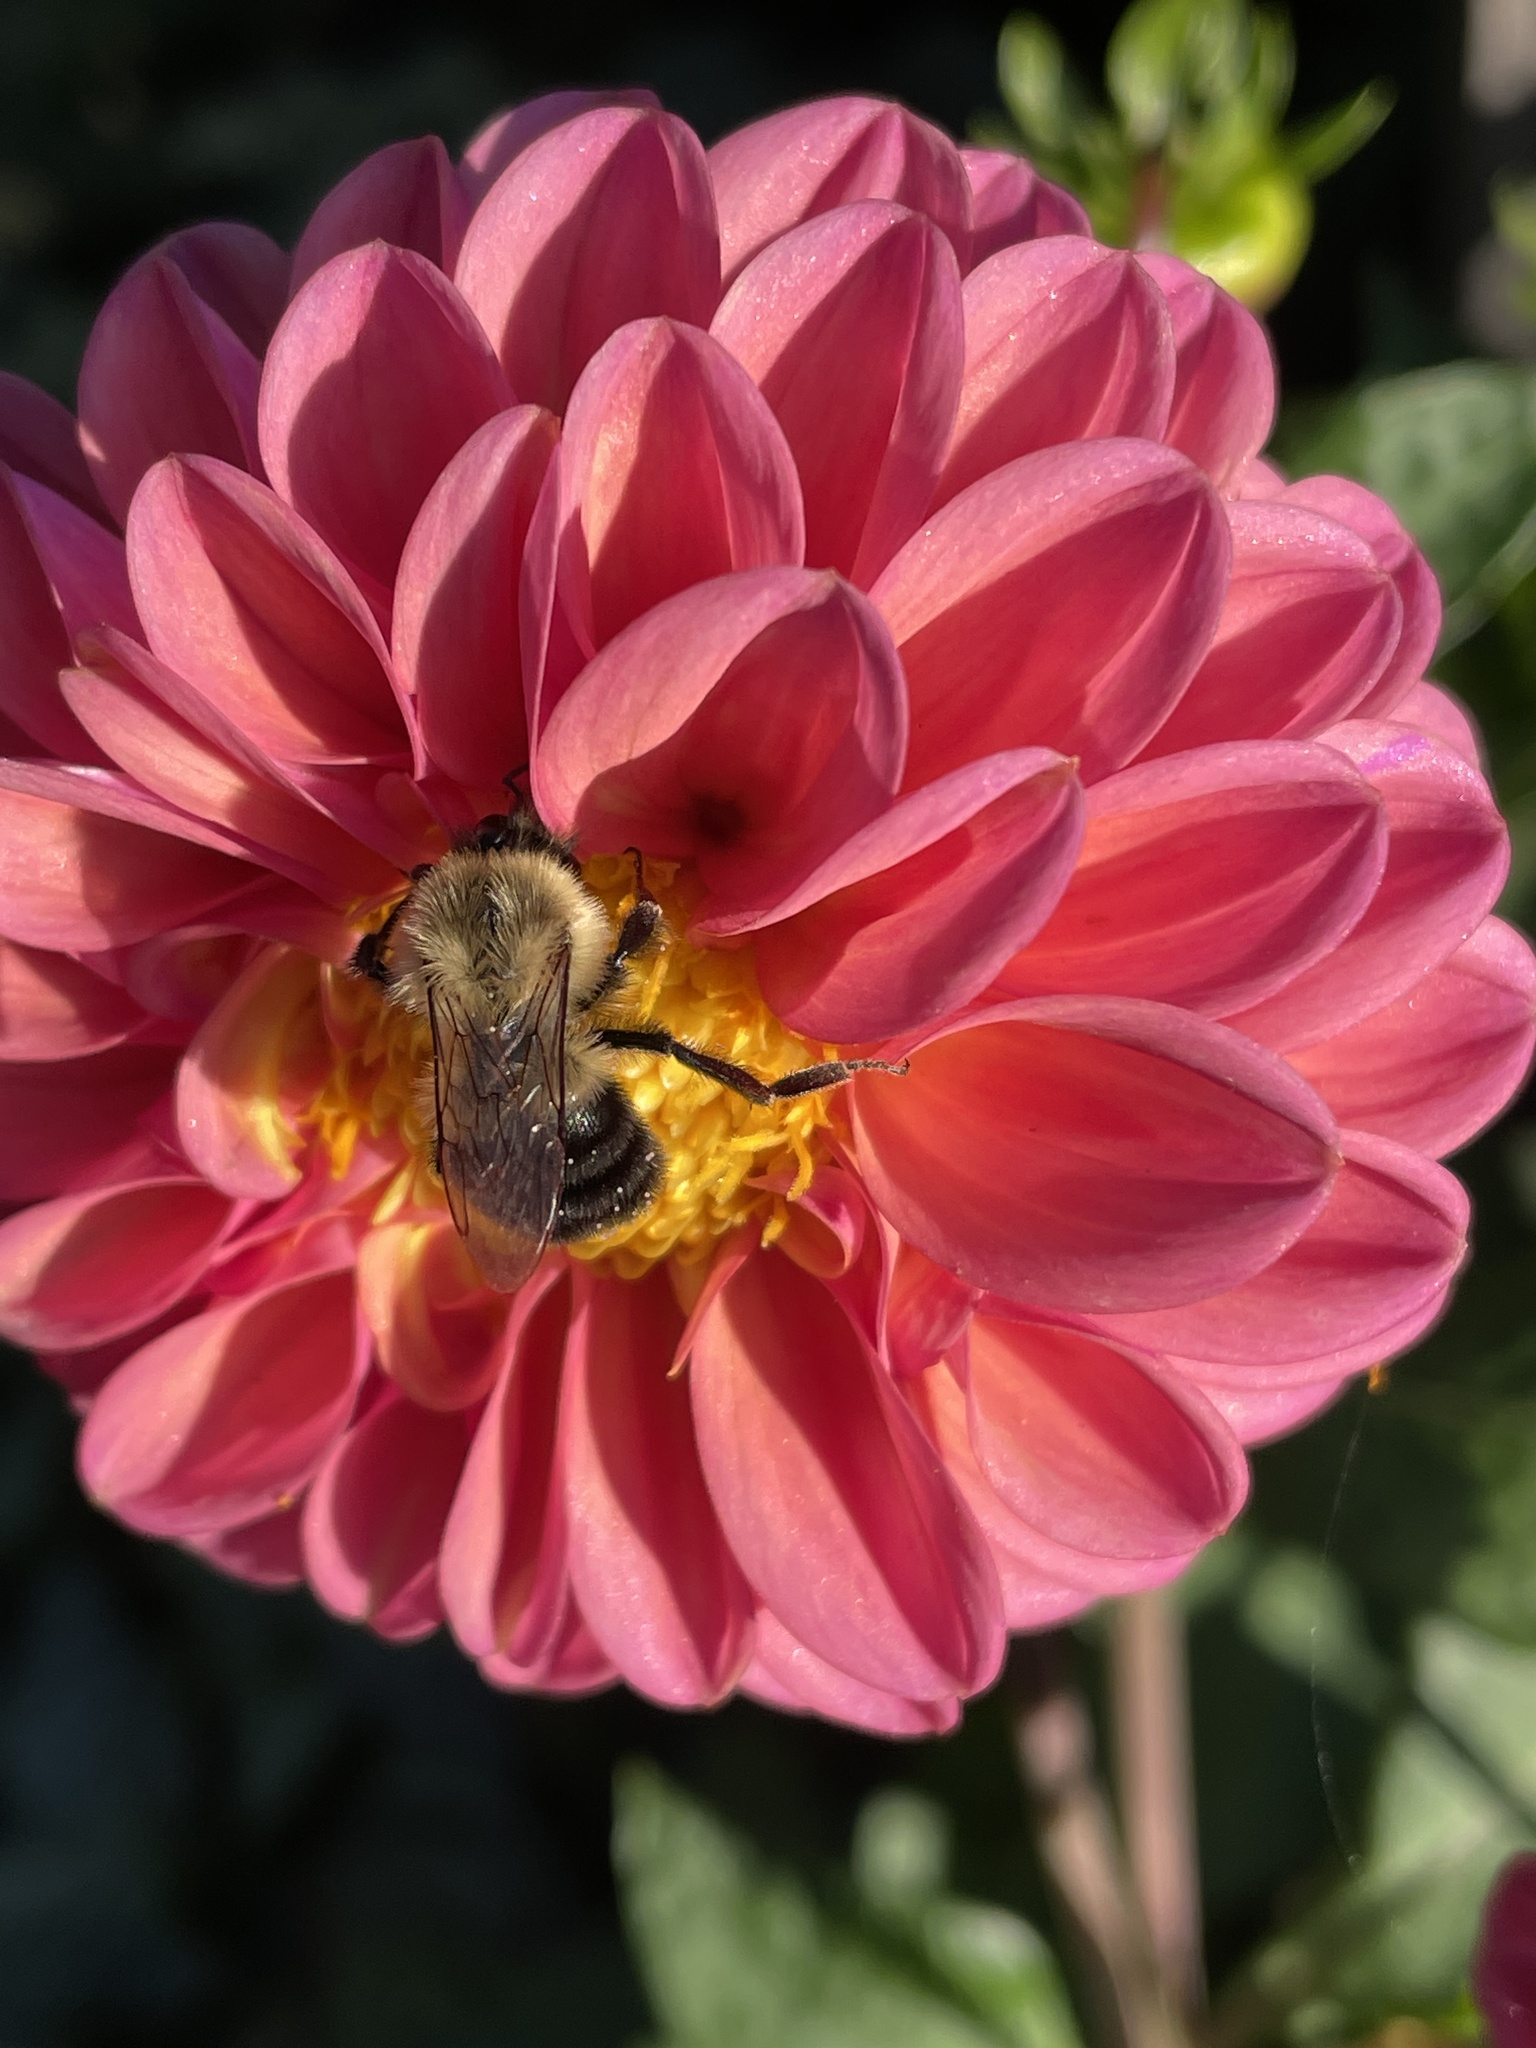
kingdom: Animalia
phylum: Arthropoda
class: Insecta
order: Hymenoptera
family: Apidae
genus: Bombus
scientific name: Bombus impatiens
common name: Common eastern bumble bee
